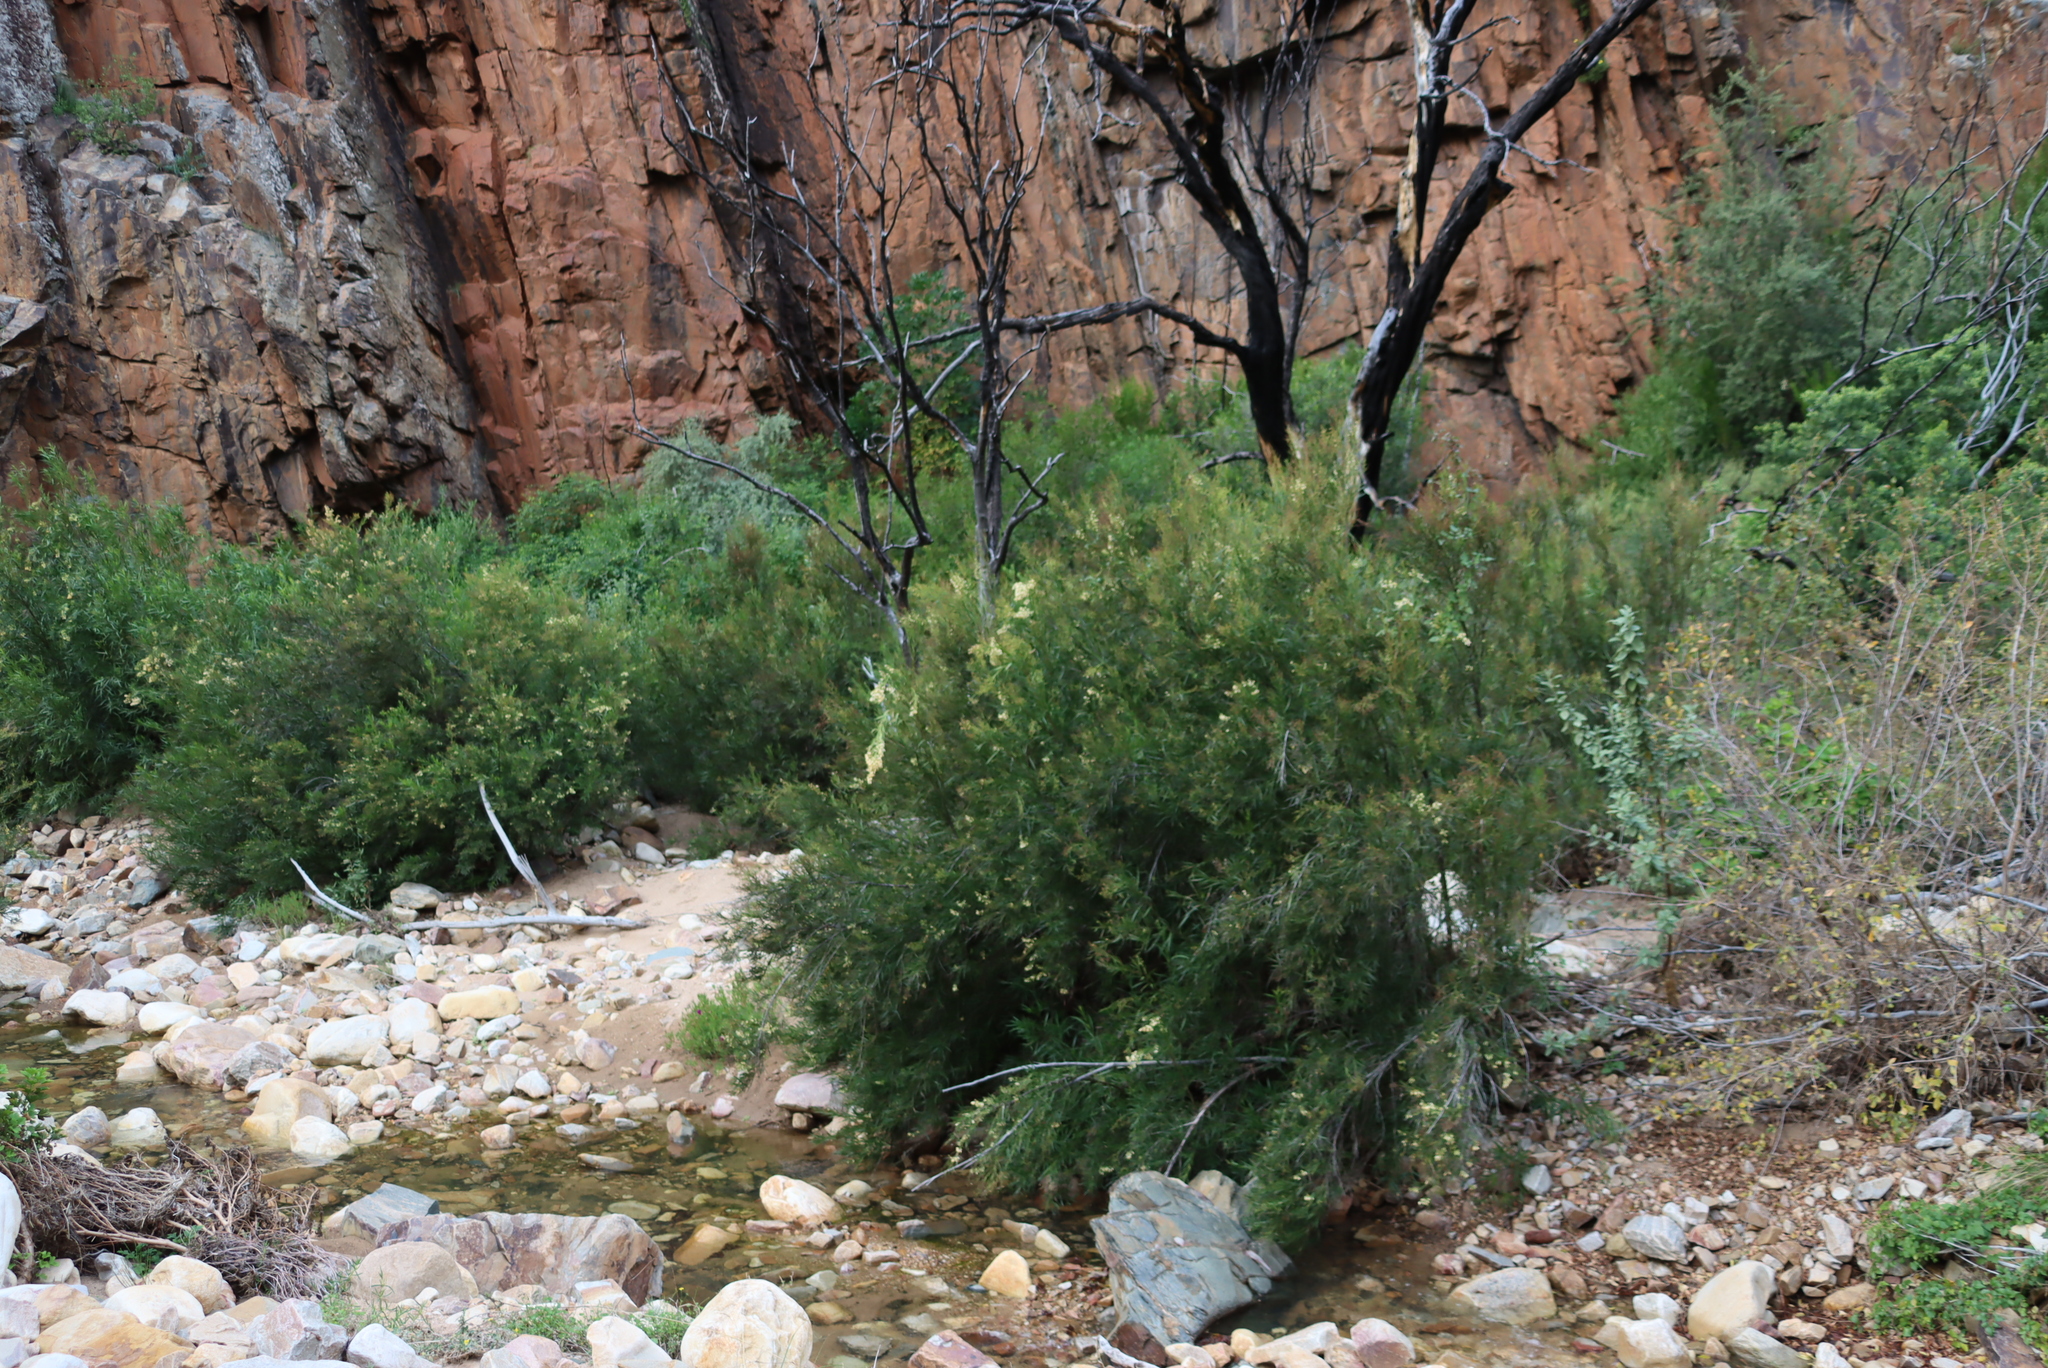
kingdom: Plantae
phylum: Tracheophyta
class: Magnoliopsida
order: Lamiales
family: Scrophulariaceae
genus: Freylinia
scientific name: Freylinia lanceolata
